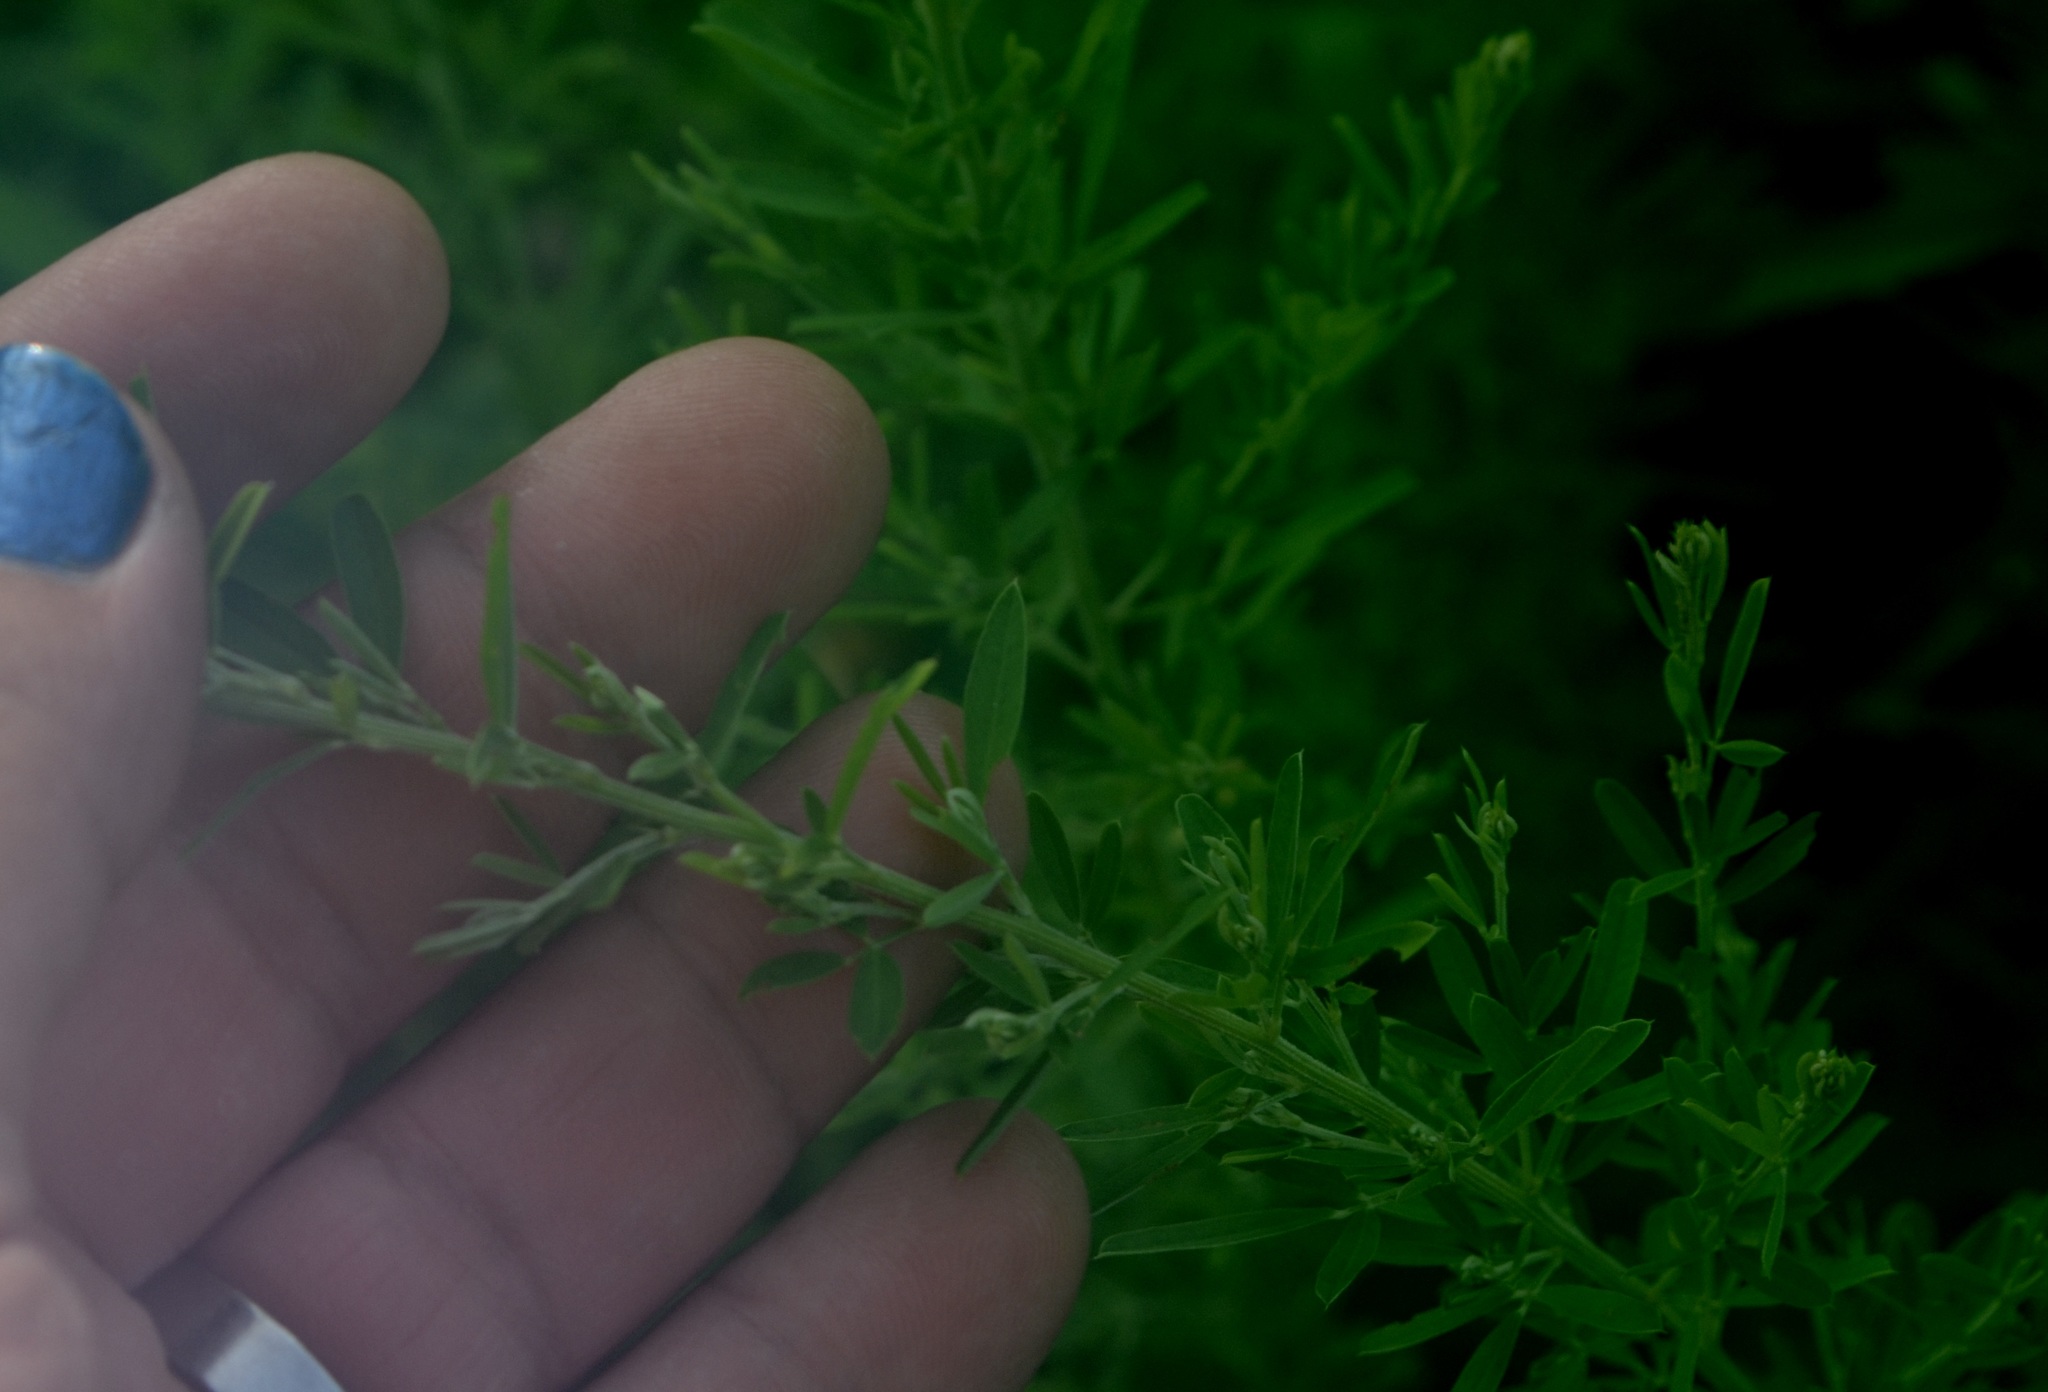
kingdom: Plantae
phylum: Tracheophyta
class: Magnoliopsida
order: Fabales
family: Fabaceae
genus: Lespedeza
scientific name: Lespedeza cuneata
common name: Chinese bush-clover
